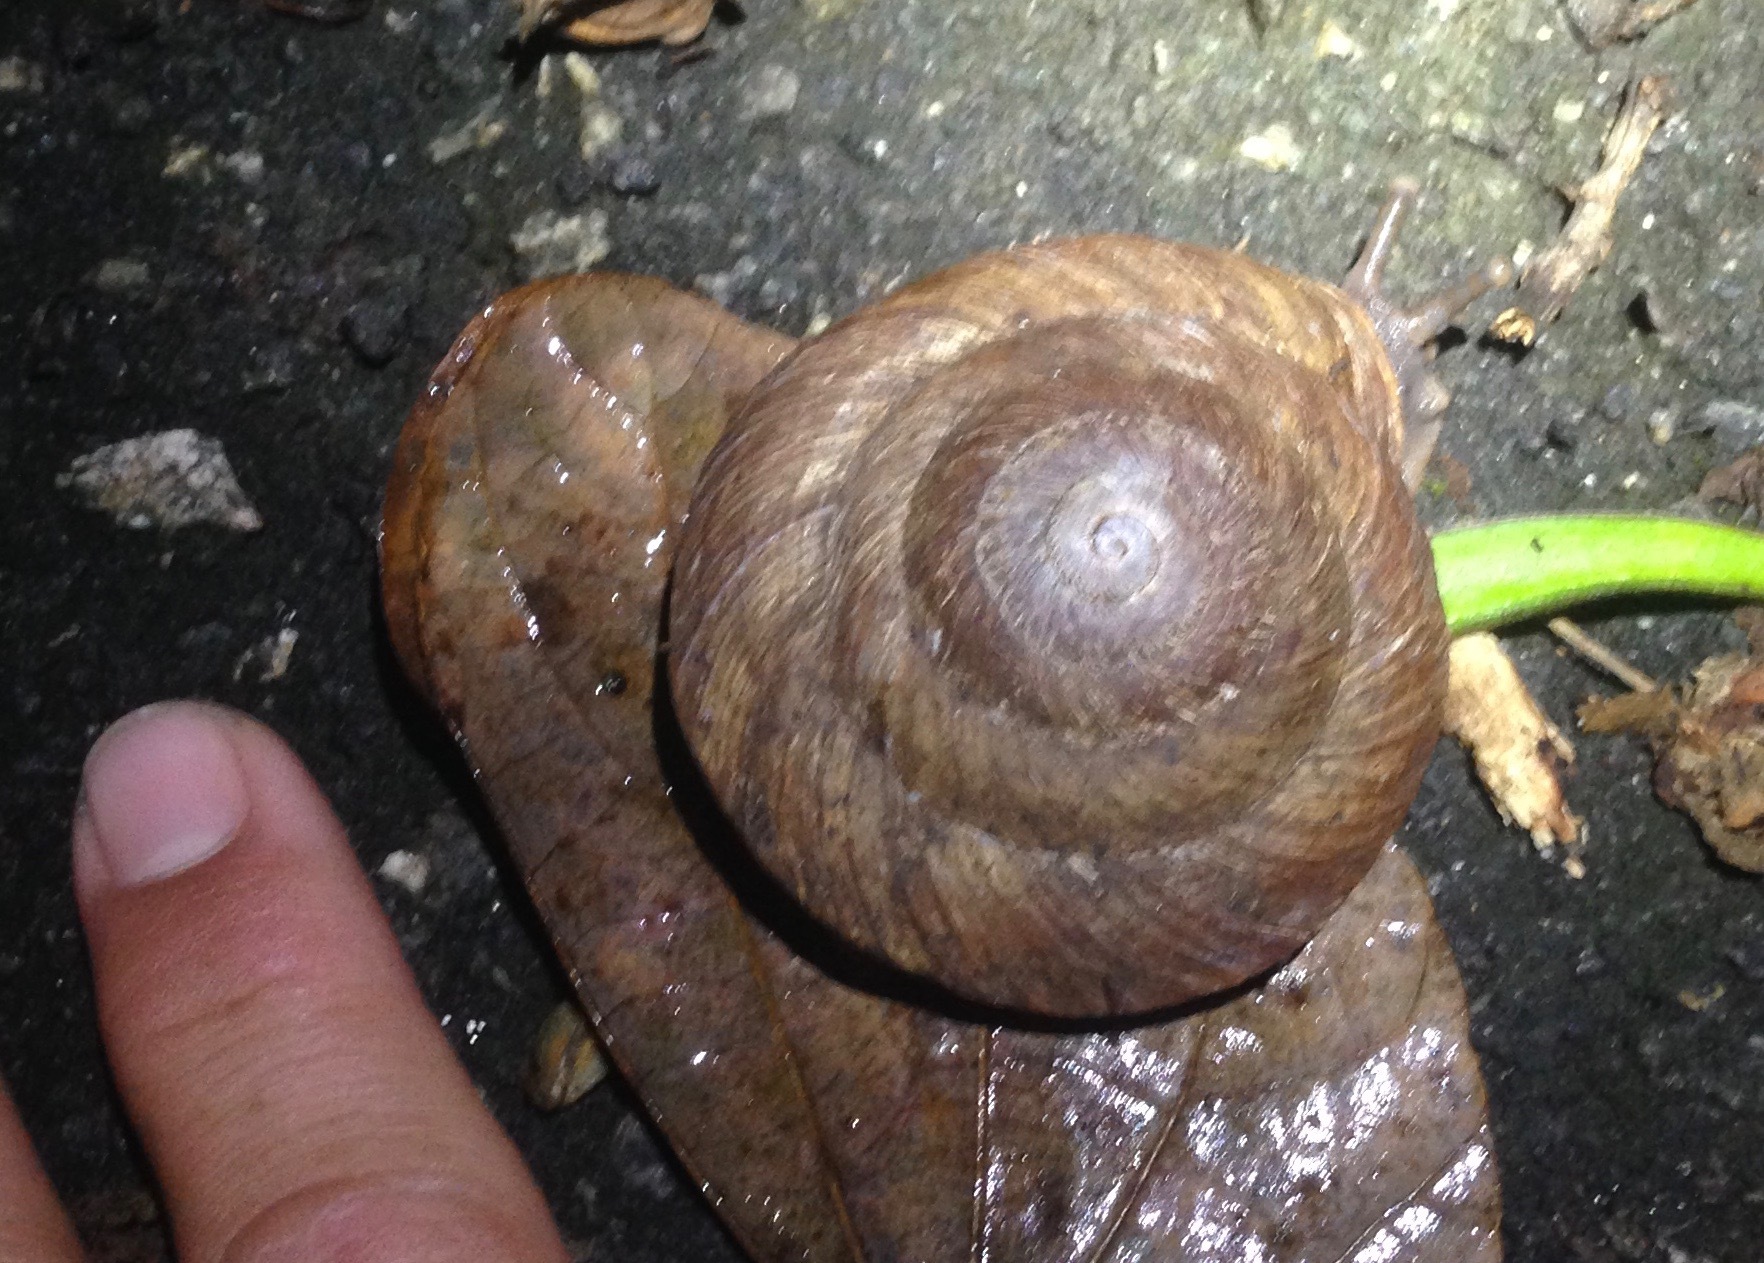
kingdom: Animalia
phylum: Mollusca
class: Gastropoda
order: Stylommatophora
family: Solaropsidae
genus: Caracolus
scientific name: Caracolus carocolla
